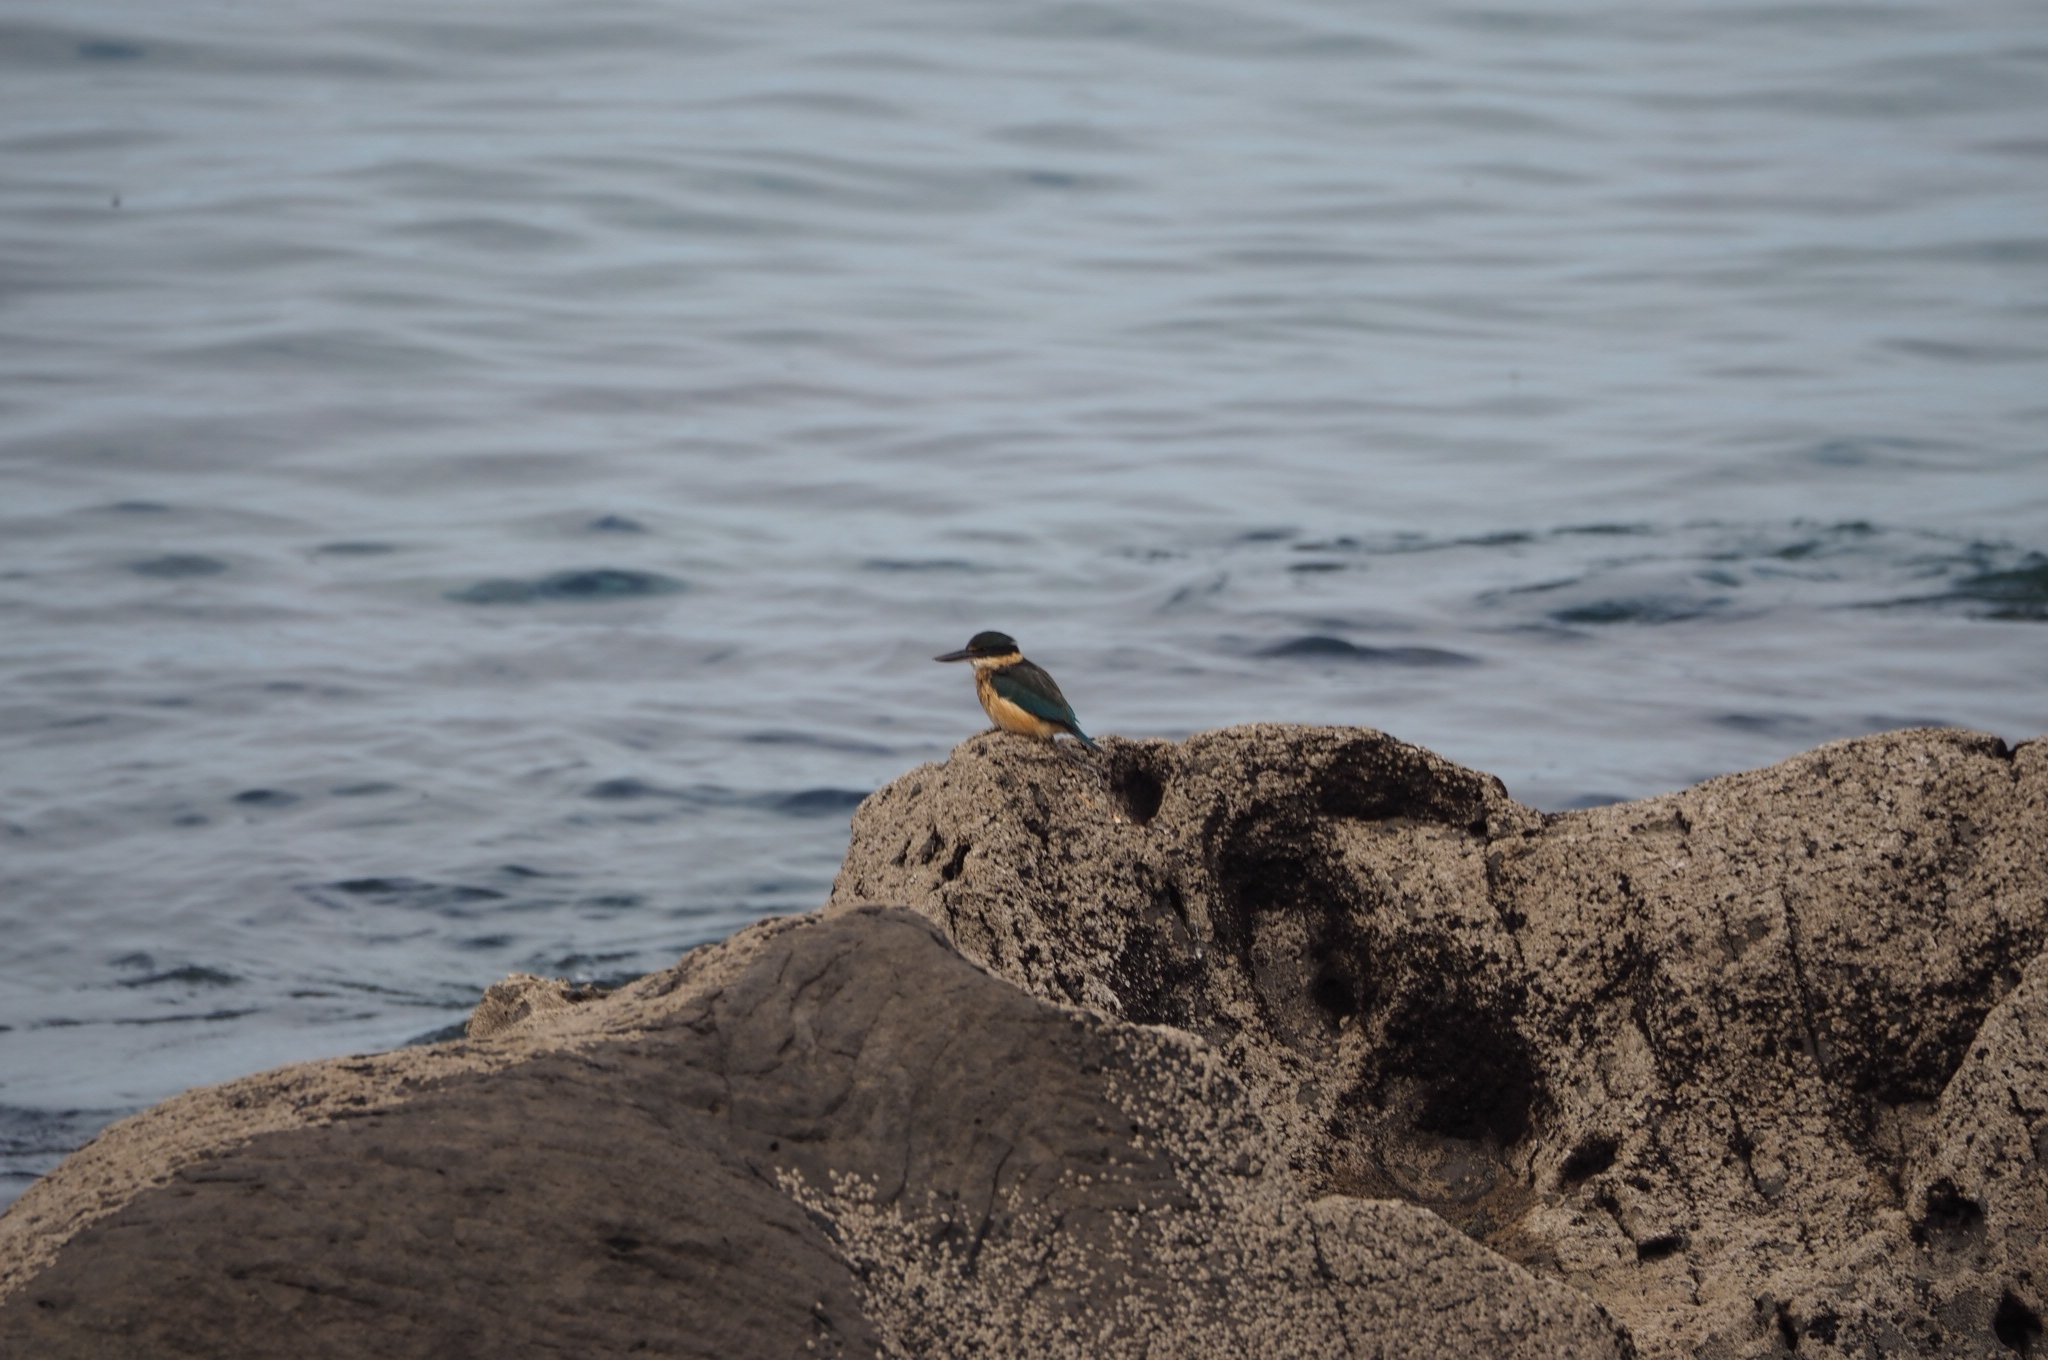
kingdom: Animalia
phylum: Chordata
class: Aves
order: Coraciiformes
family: Alcedinidae
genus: Todiramphus
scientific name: Todiramphus sanctus
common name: Sacred kingfisher
